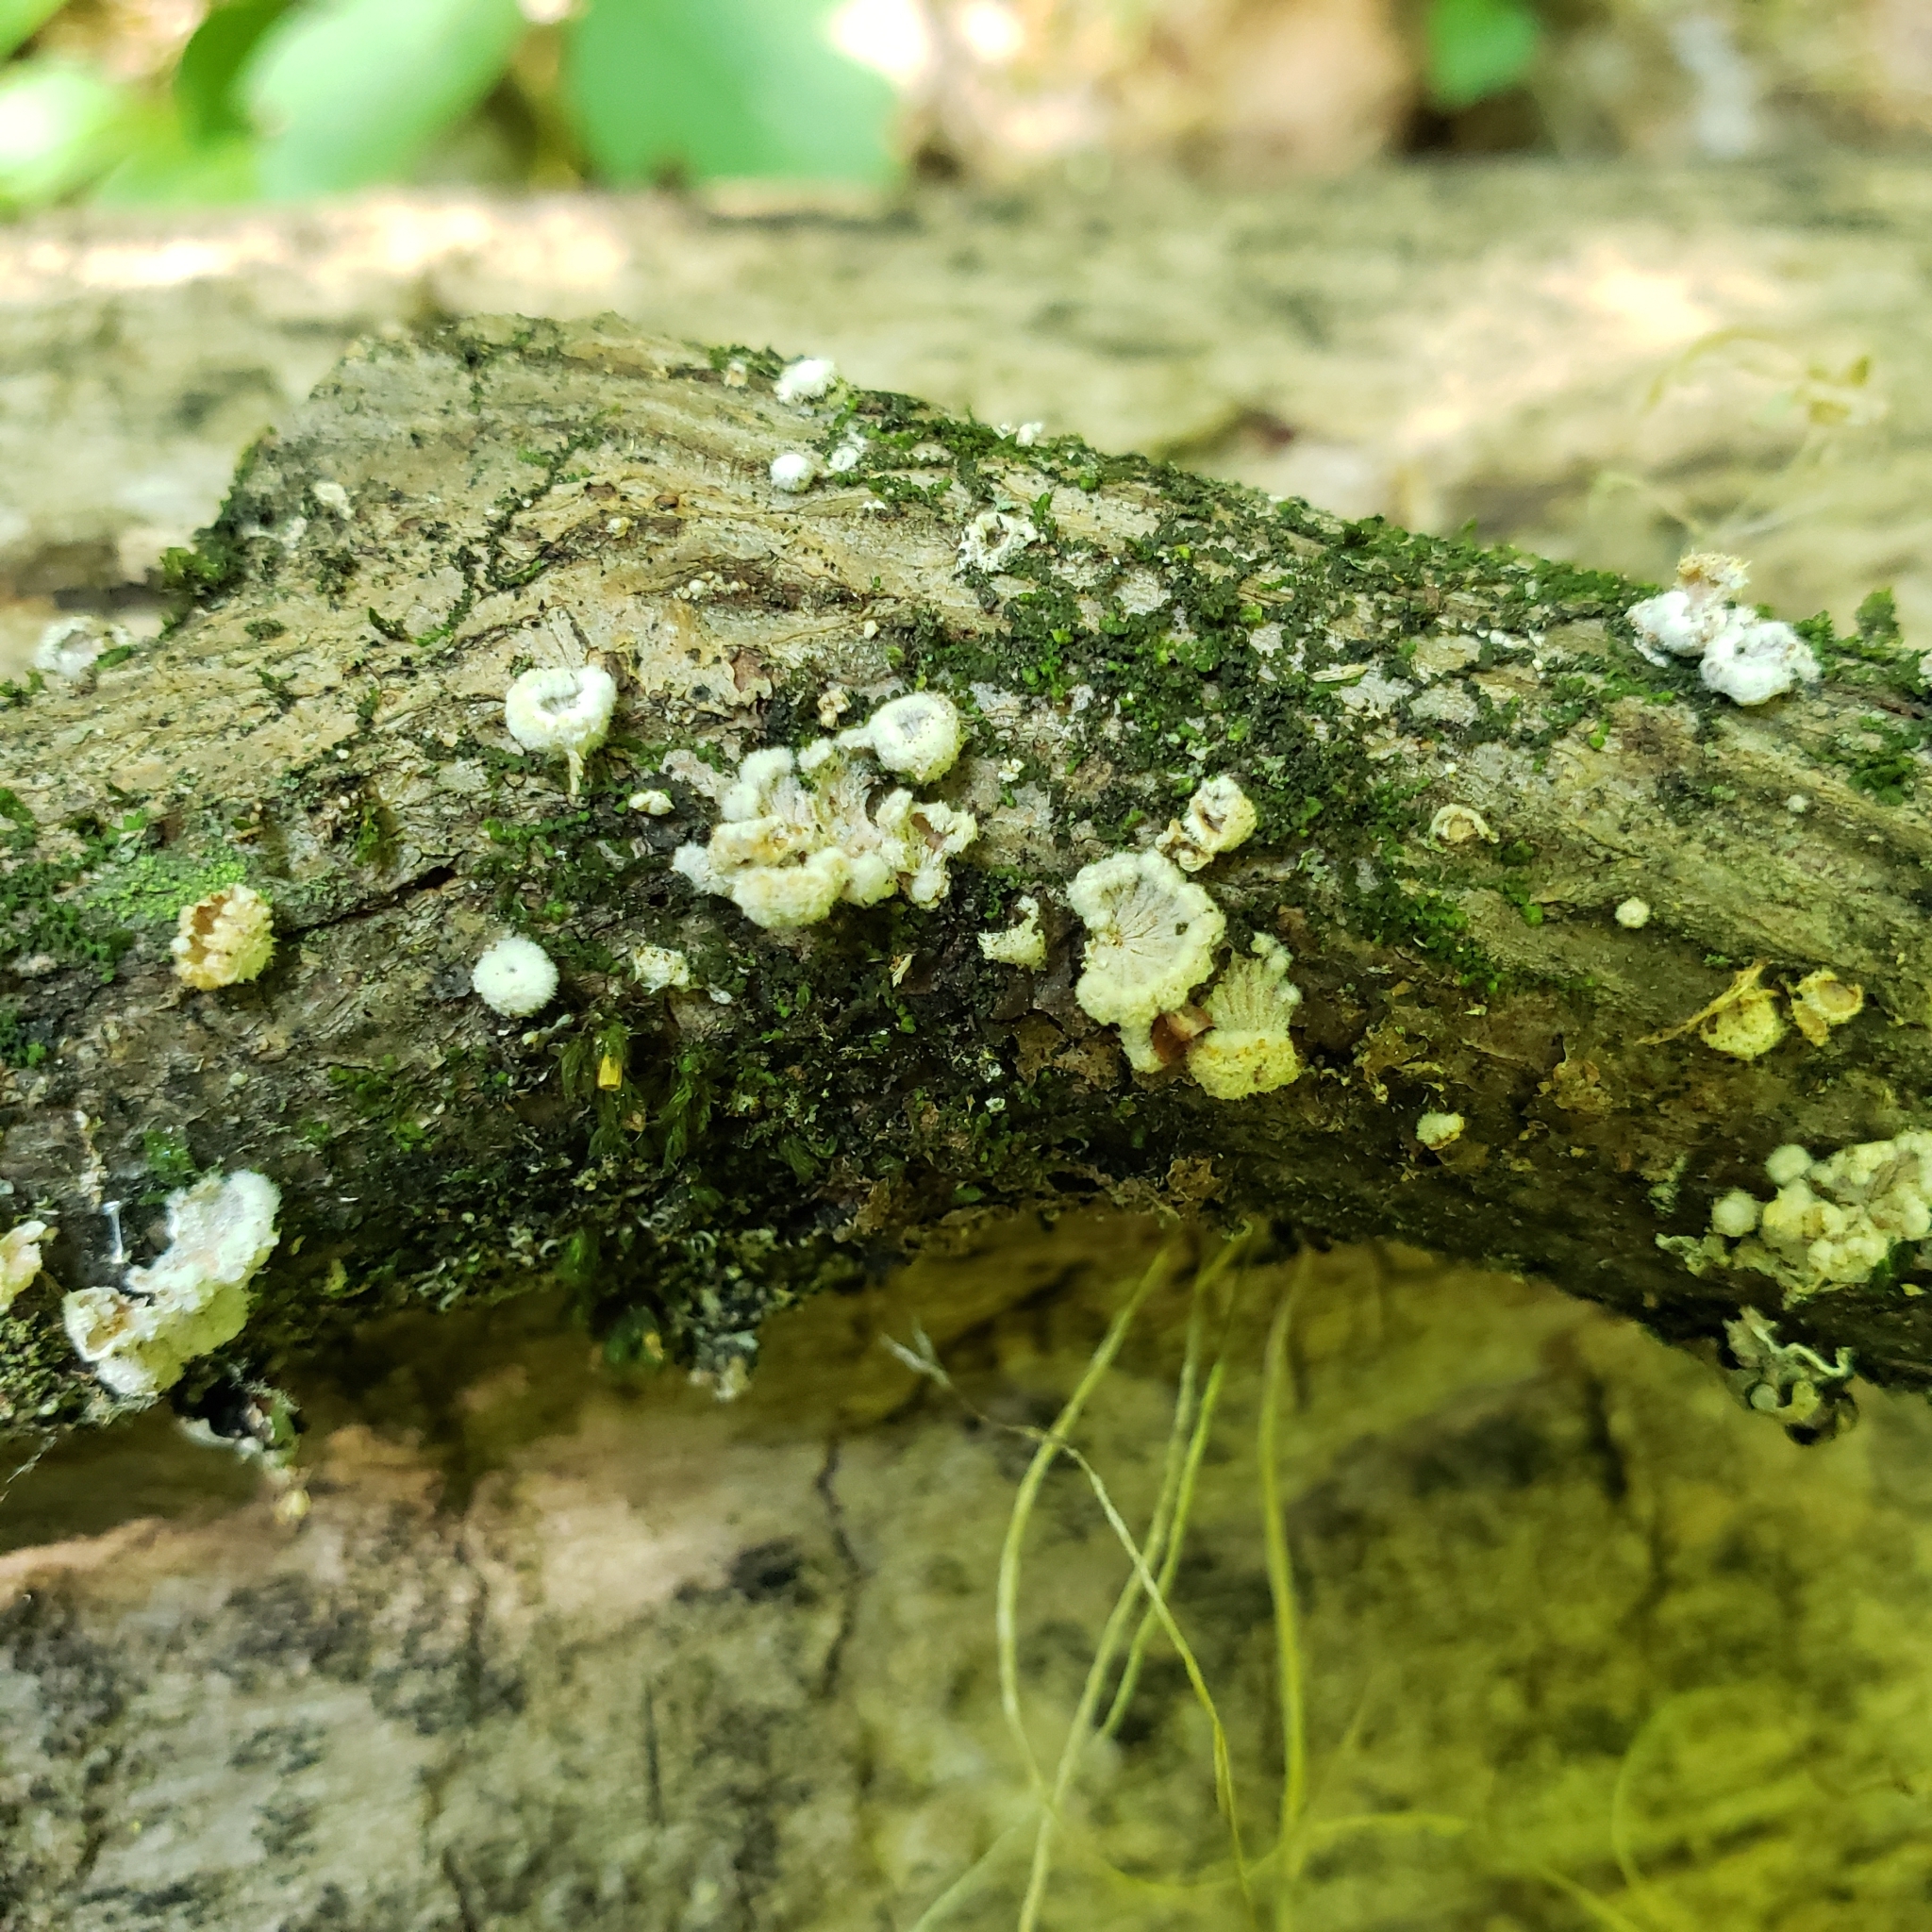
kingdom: Fungi
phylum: Basidiomycota
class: Agaricomycetes
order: Agaricales
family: Schizophyllaceae
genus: Schizophyllum
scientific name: Schizophyllum commune
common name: Common porecrust
